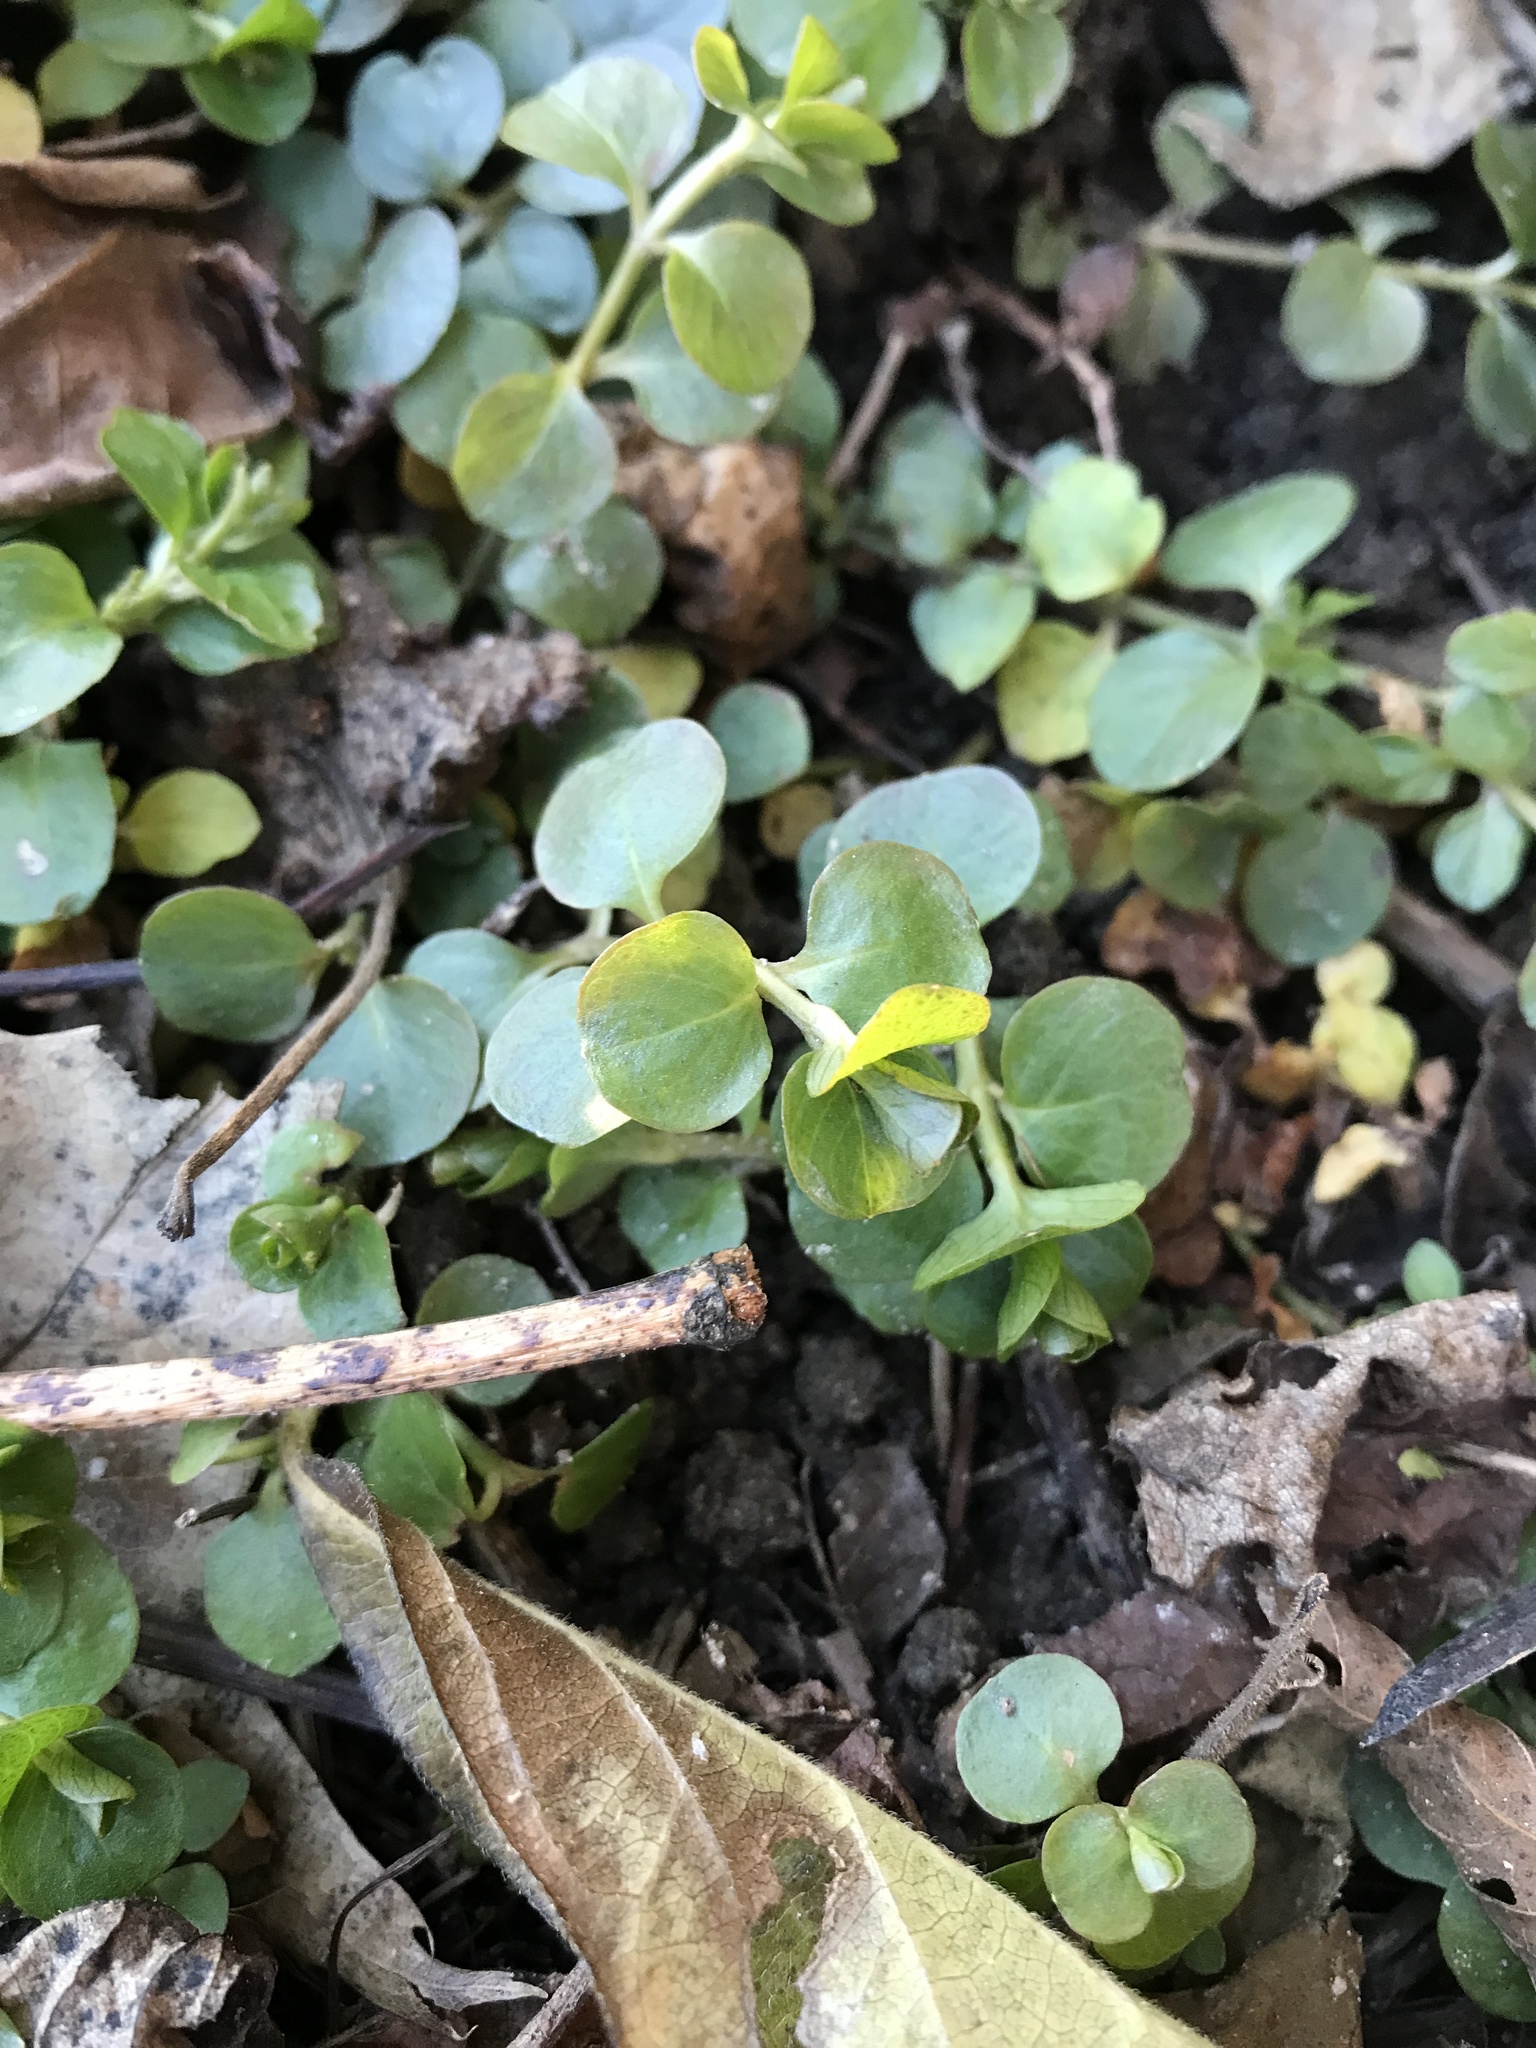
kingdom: Plantae
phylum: Tracheophyta
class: Magnoliopsida
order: Ericales
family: Primulaceae
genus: Lysimachia
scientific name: Lysimachia nummularia
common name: Moneywort
